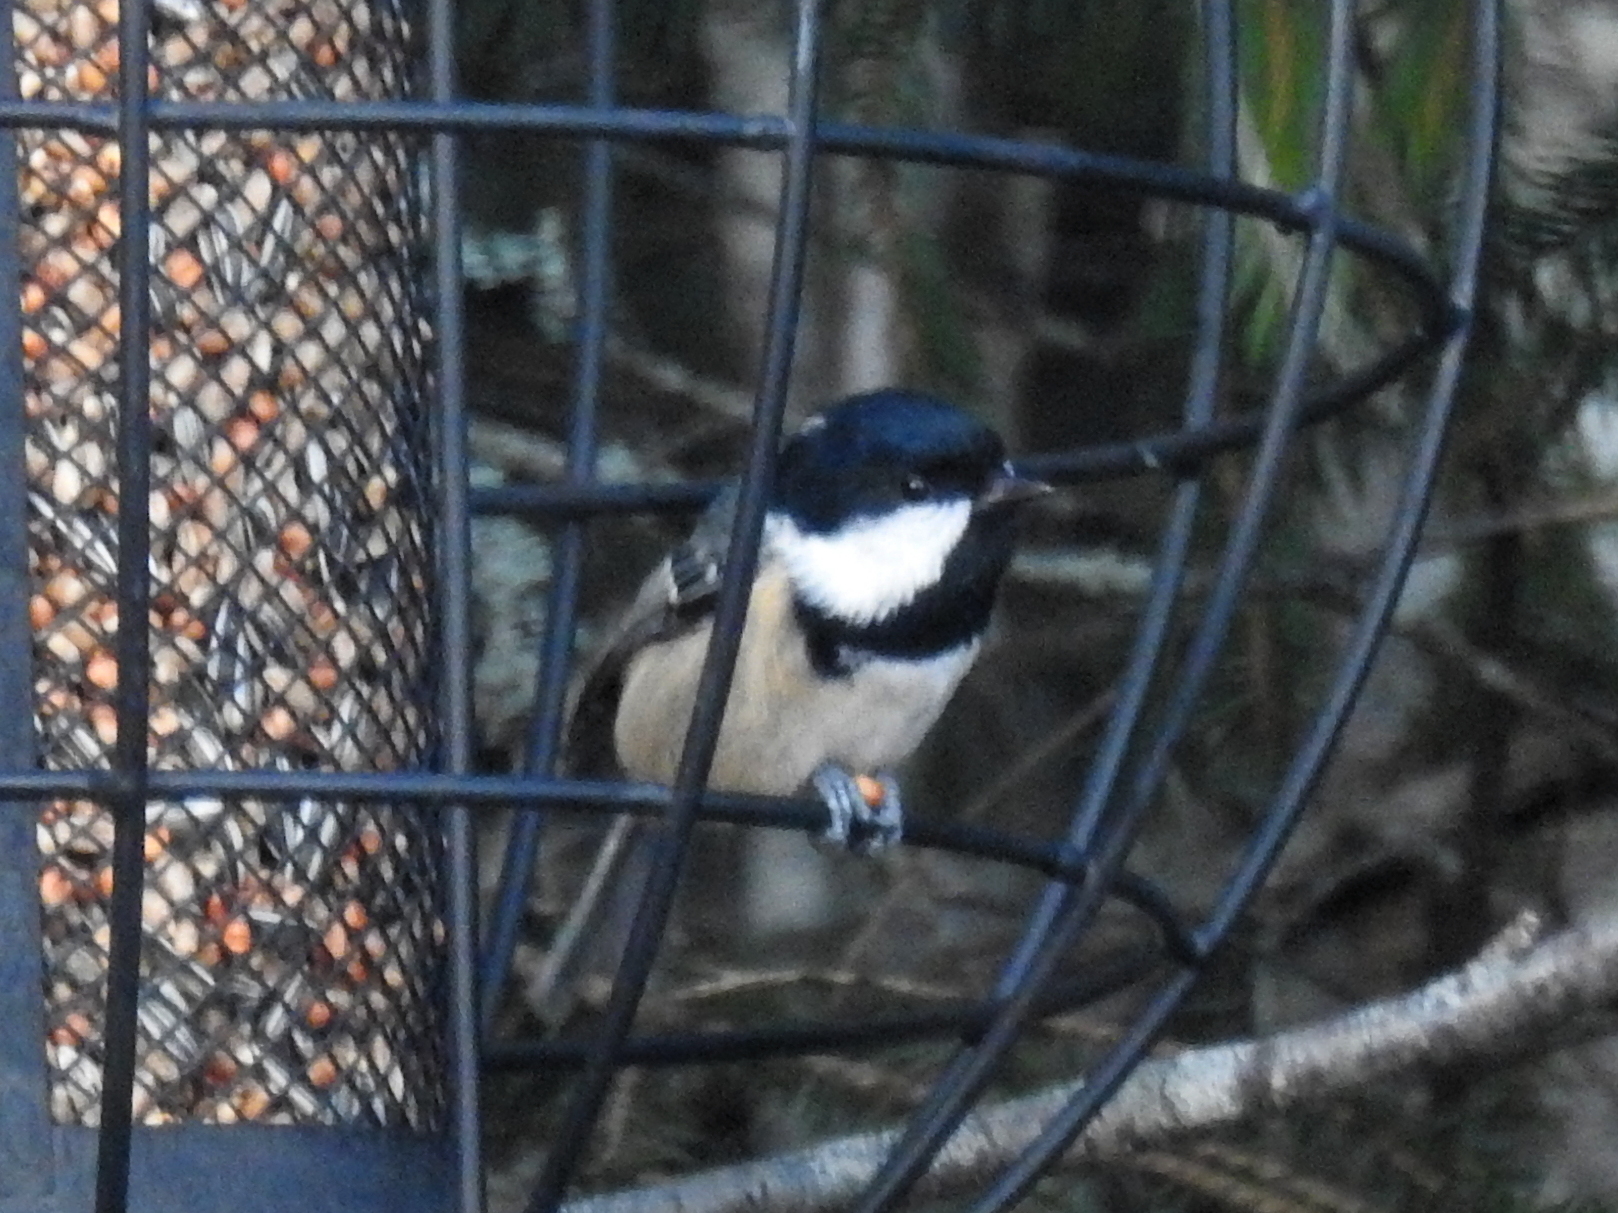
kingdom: Animalia
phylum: Chordata
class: Aves
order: Passeriformes
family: Paridae
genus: Periparus
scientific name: Periparus ater
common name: Coal tit
